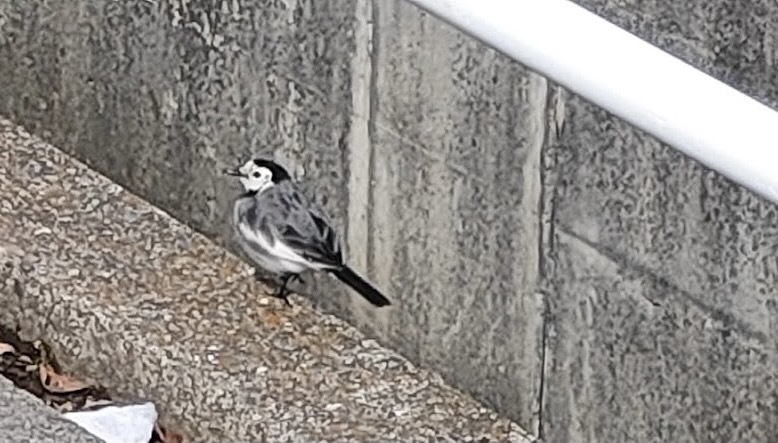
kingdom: Animalia
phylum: Chordata
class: Aves
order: Passeriformes
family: Motacillidae
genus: Motacilla
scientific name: Motacilla alba
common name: White wagtail
